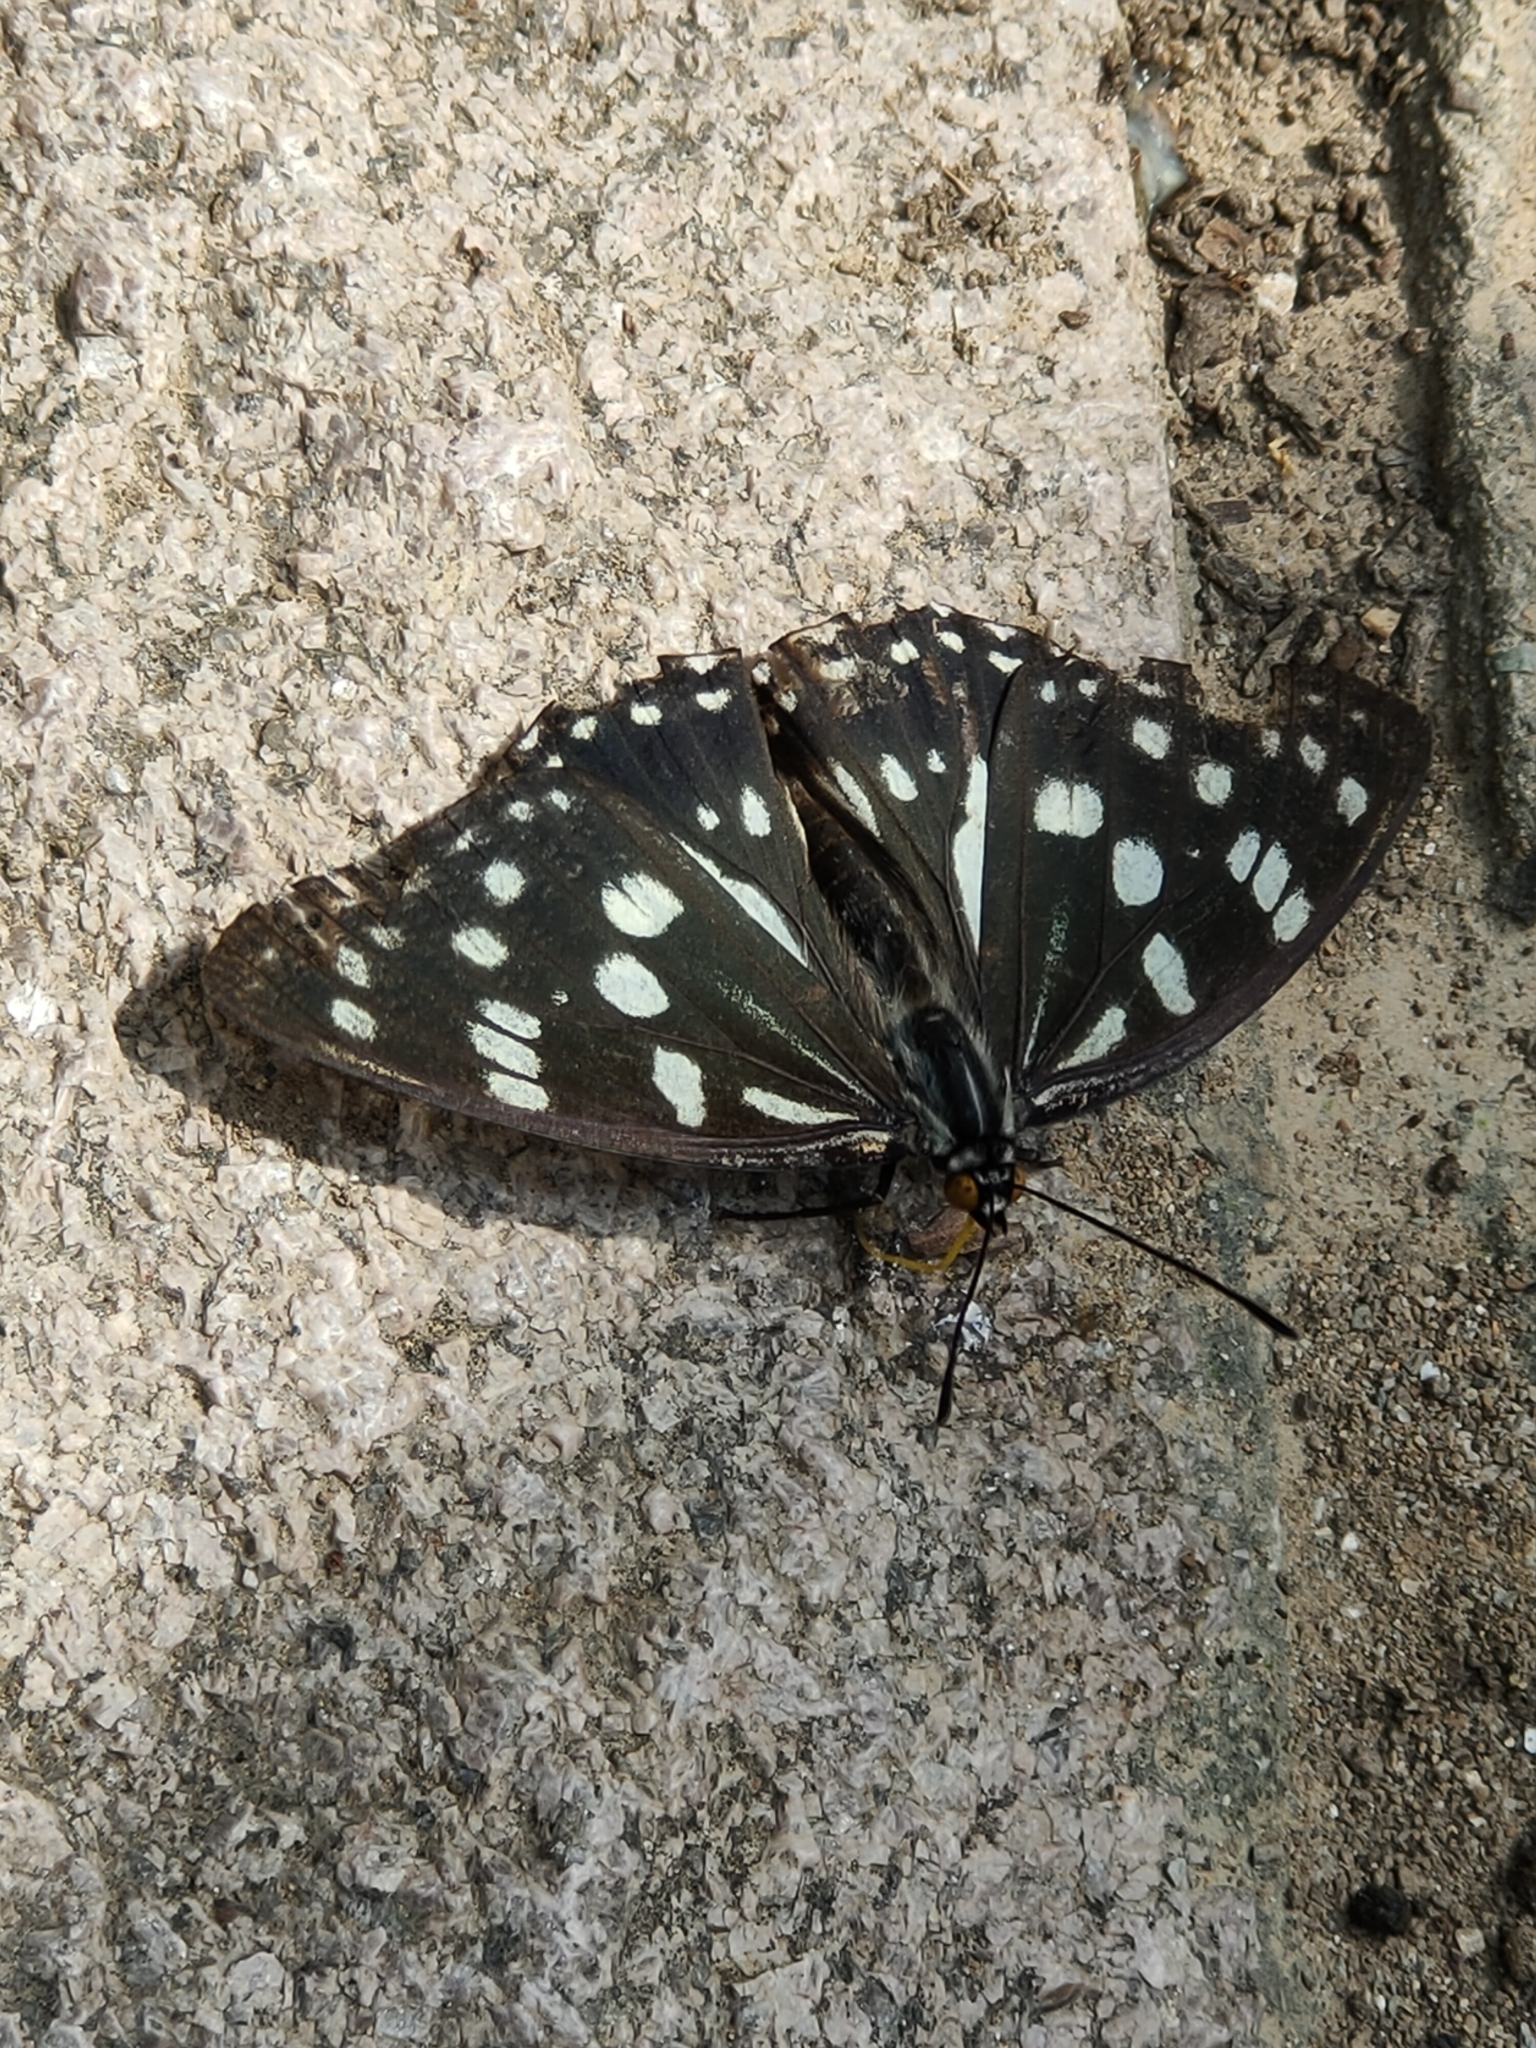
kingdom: Animalia
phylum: Arthropoda
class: Insecta
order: Lepidoptera
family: Nymphalidae
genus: Hestina
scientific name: Hestina persimilis
